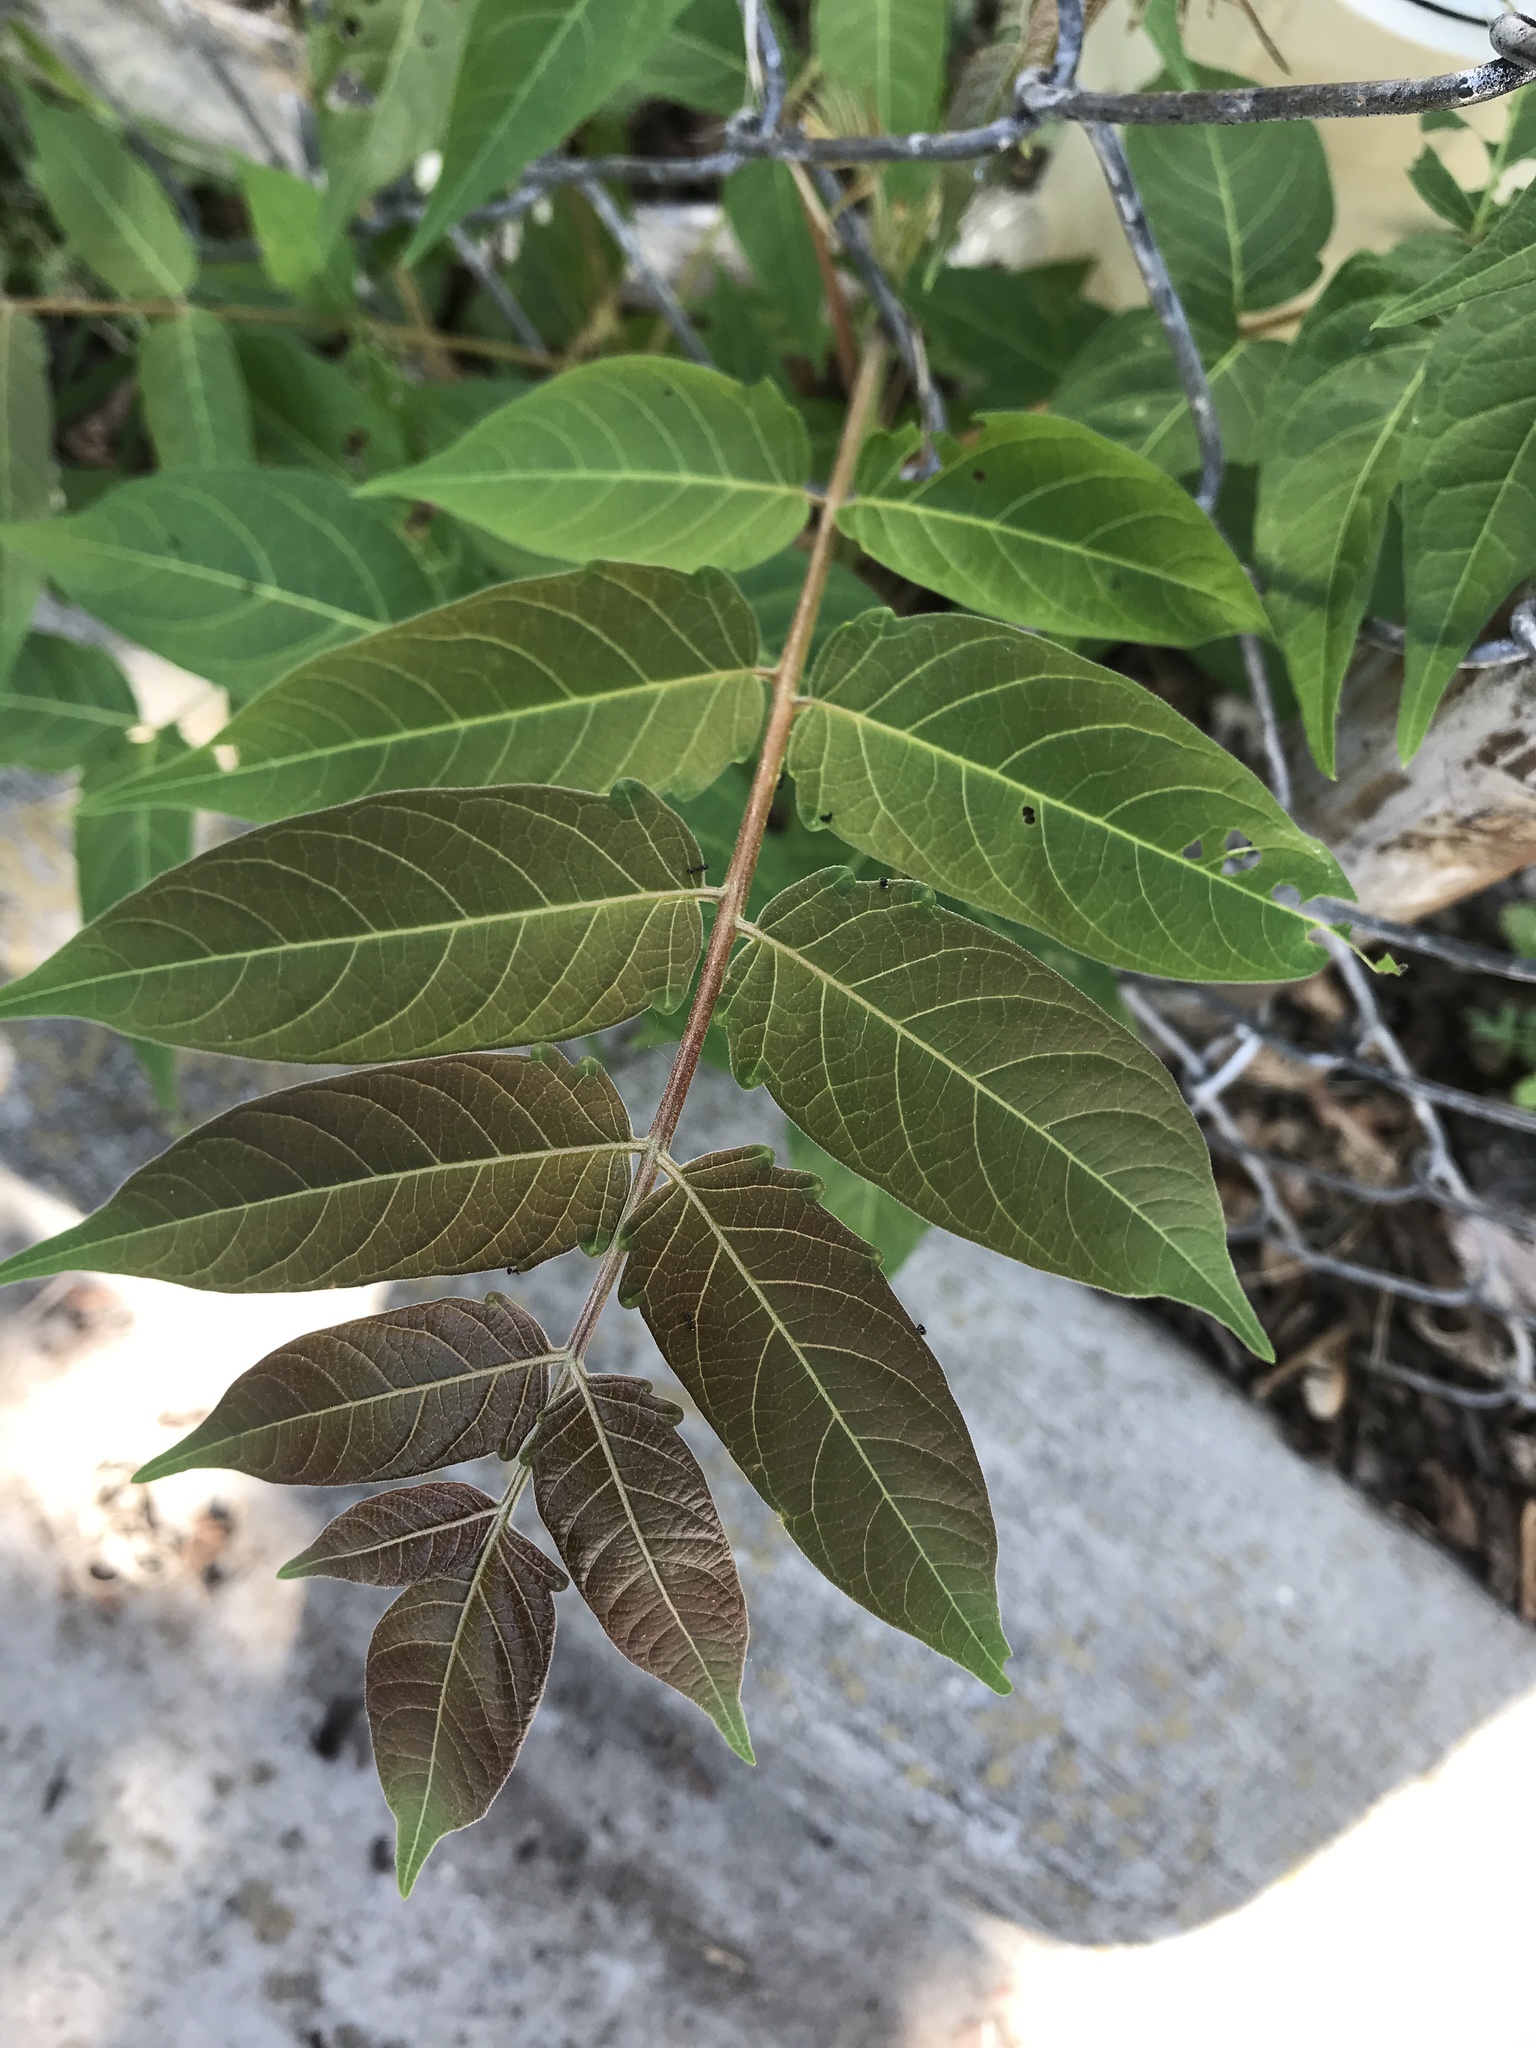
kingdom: Plantae
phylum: Tracheophyta
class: Magnoliopsida
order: Sapindales
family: Simaroubaceae
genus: Ailanthus
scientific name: Ailanthus altissima
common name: Tree-of-heaven
